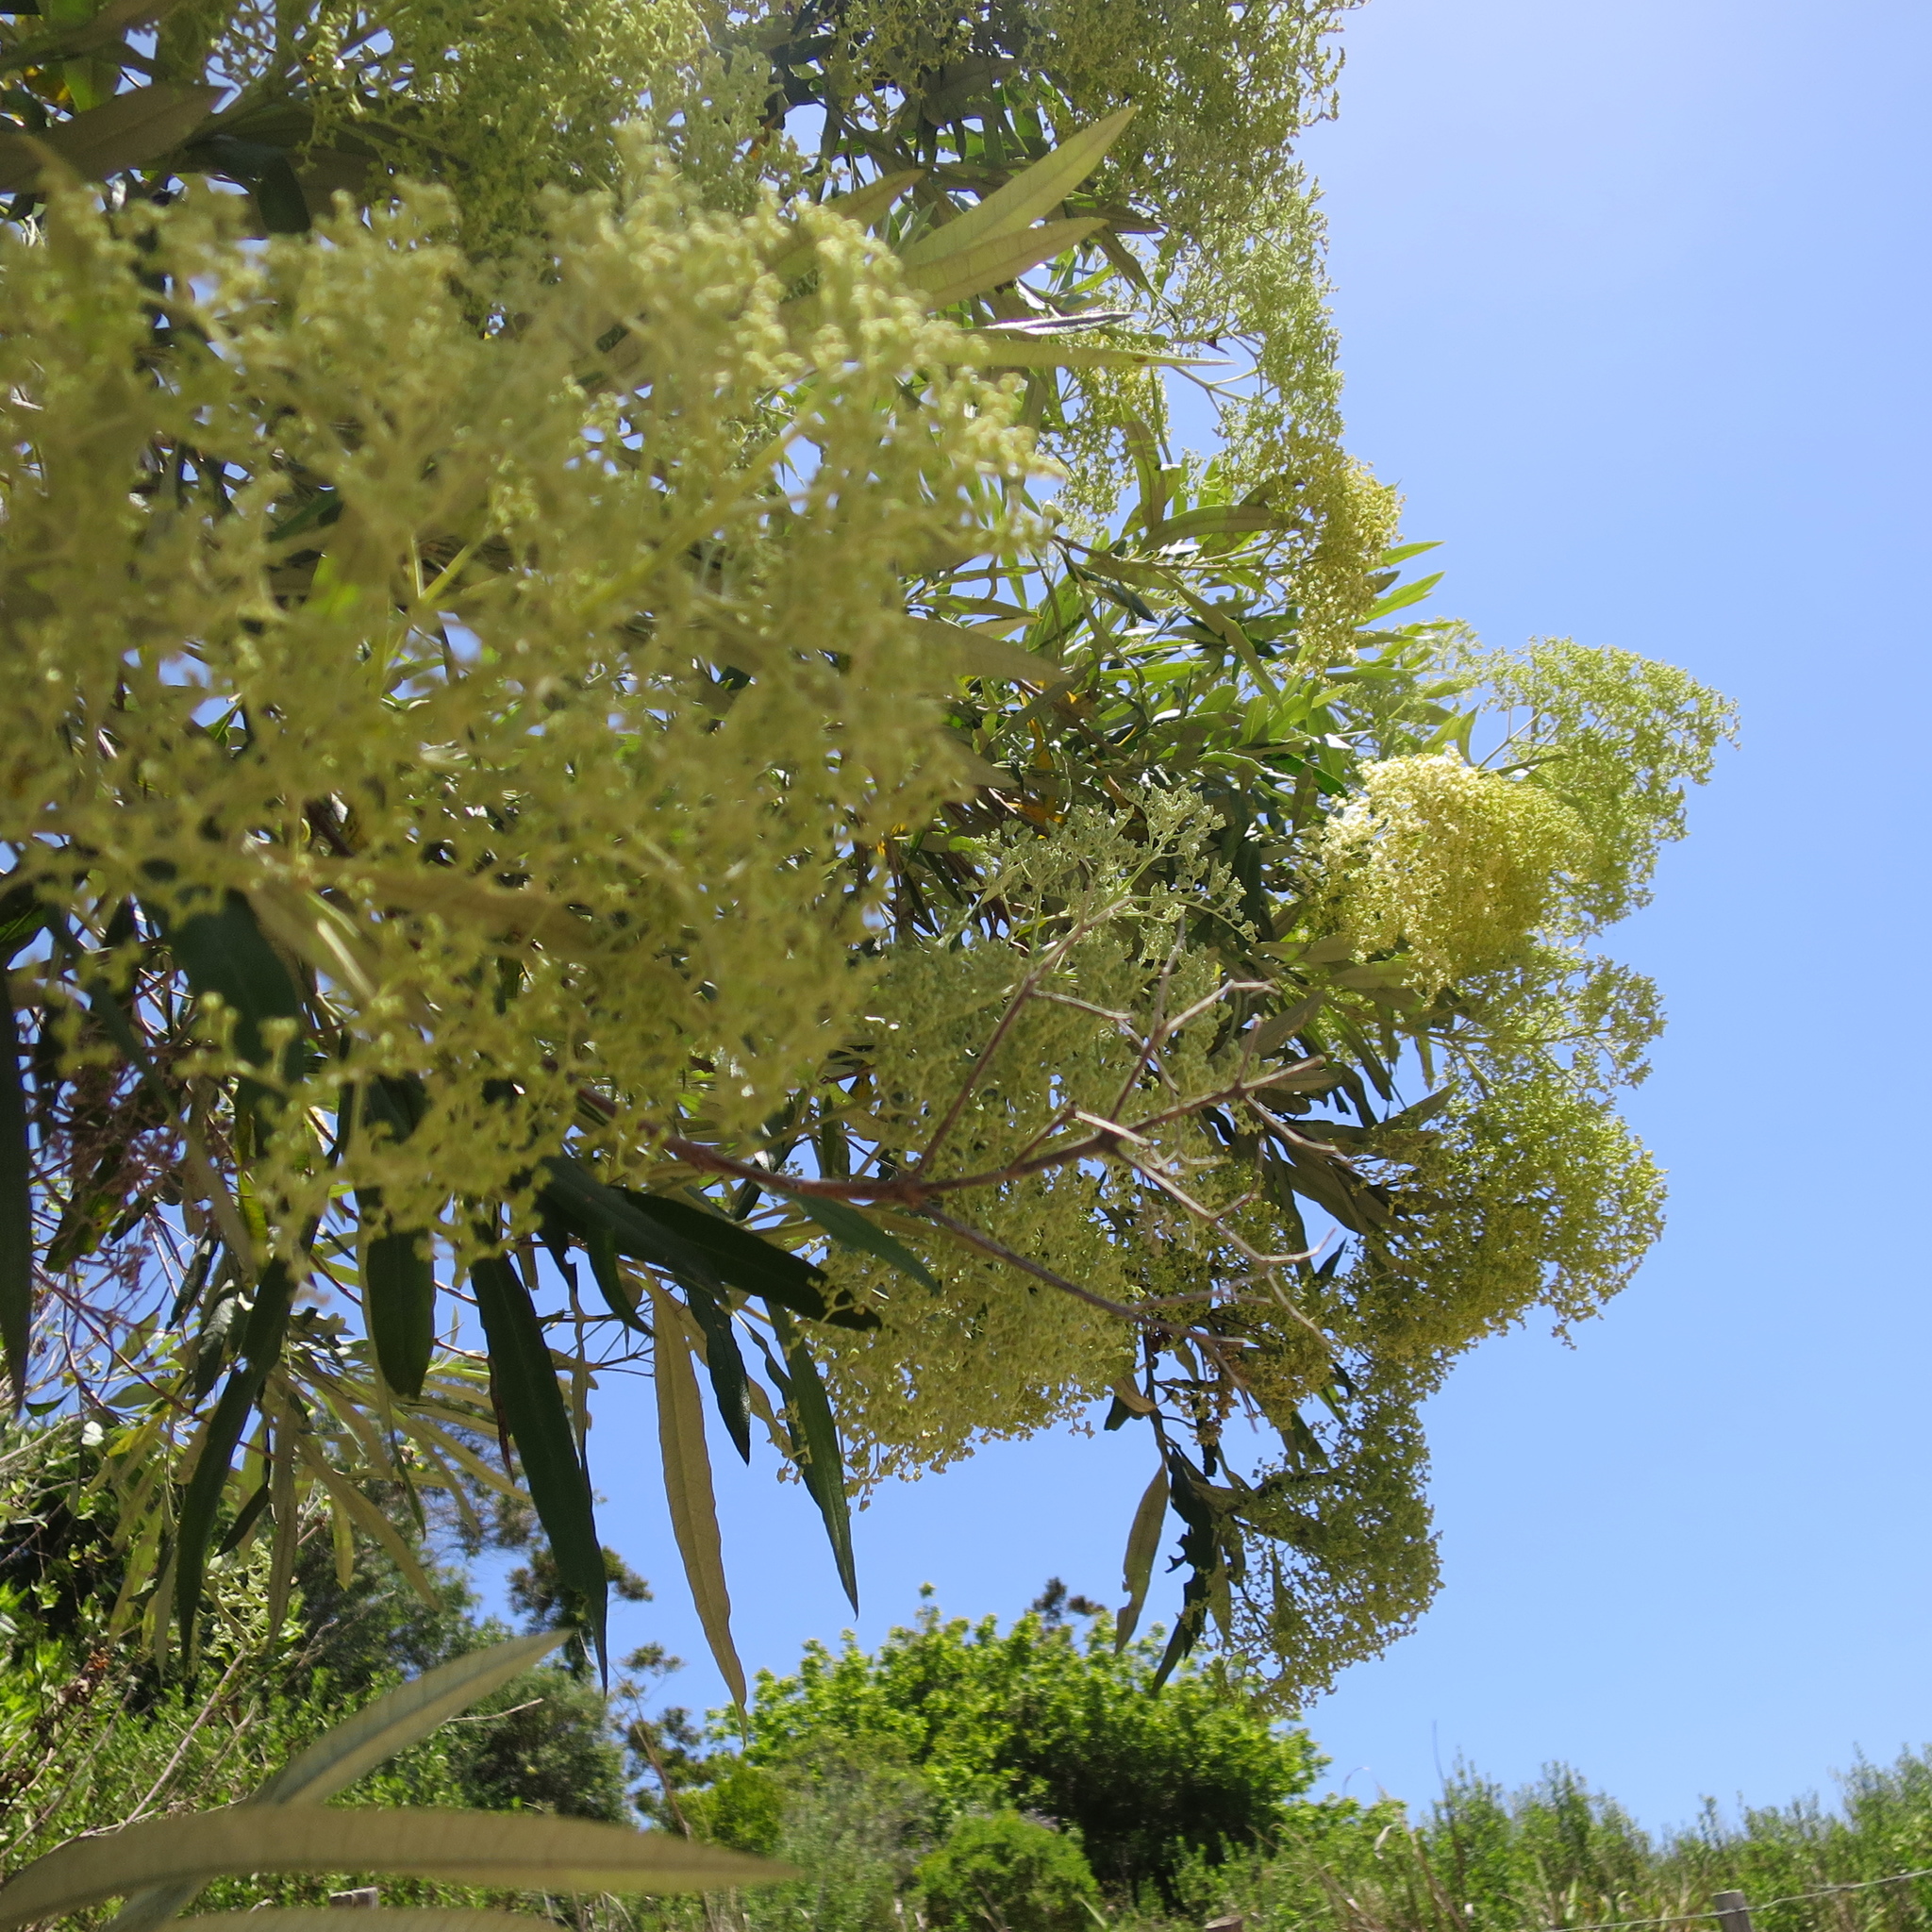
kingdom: Plantae
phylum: Tracheophyta
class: Magnoliopsida
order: Lamiales
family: Scrophulariaceae
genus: Buddleja
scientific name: Buddleja saligna
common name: False olive
